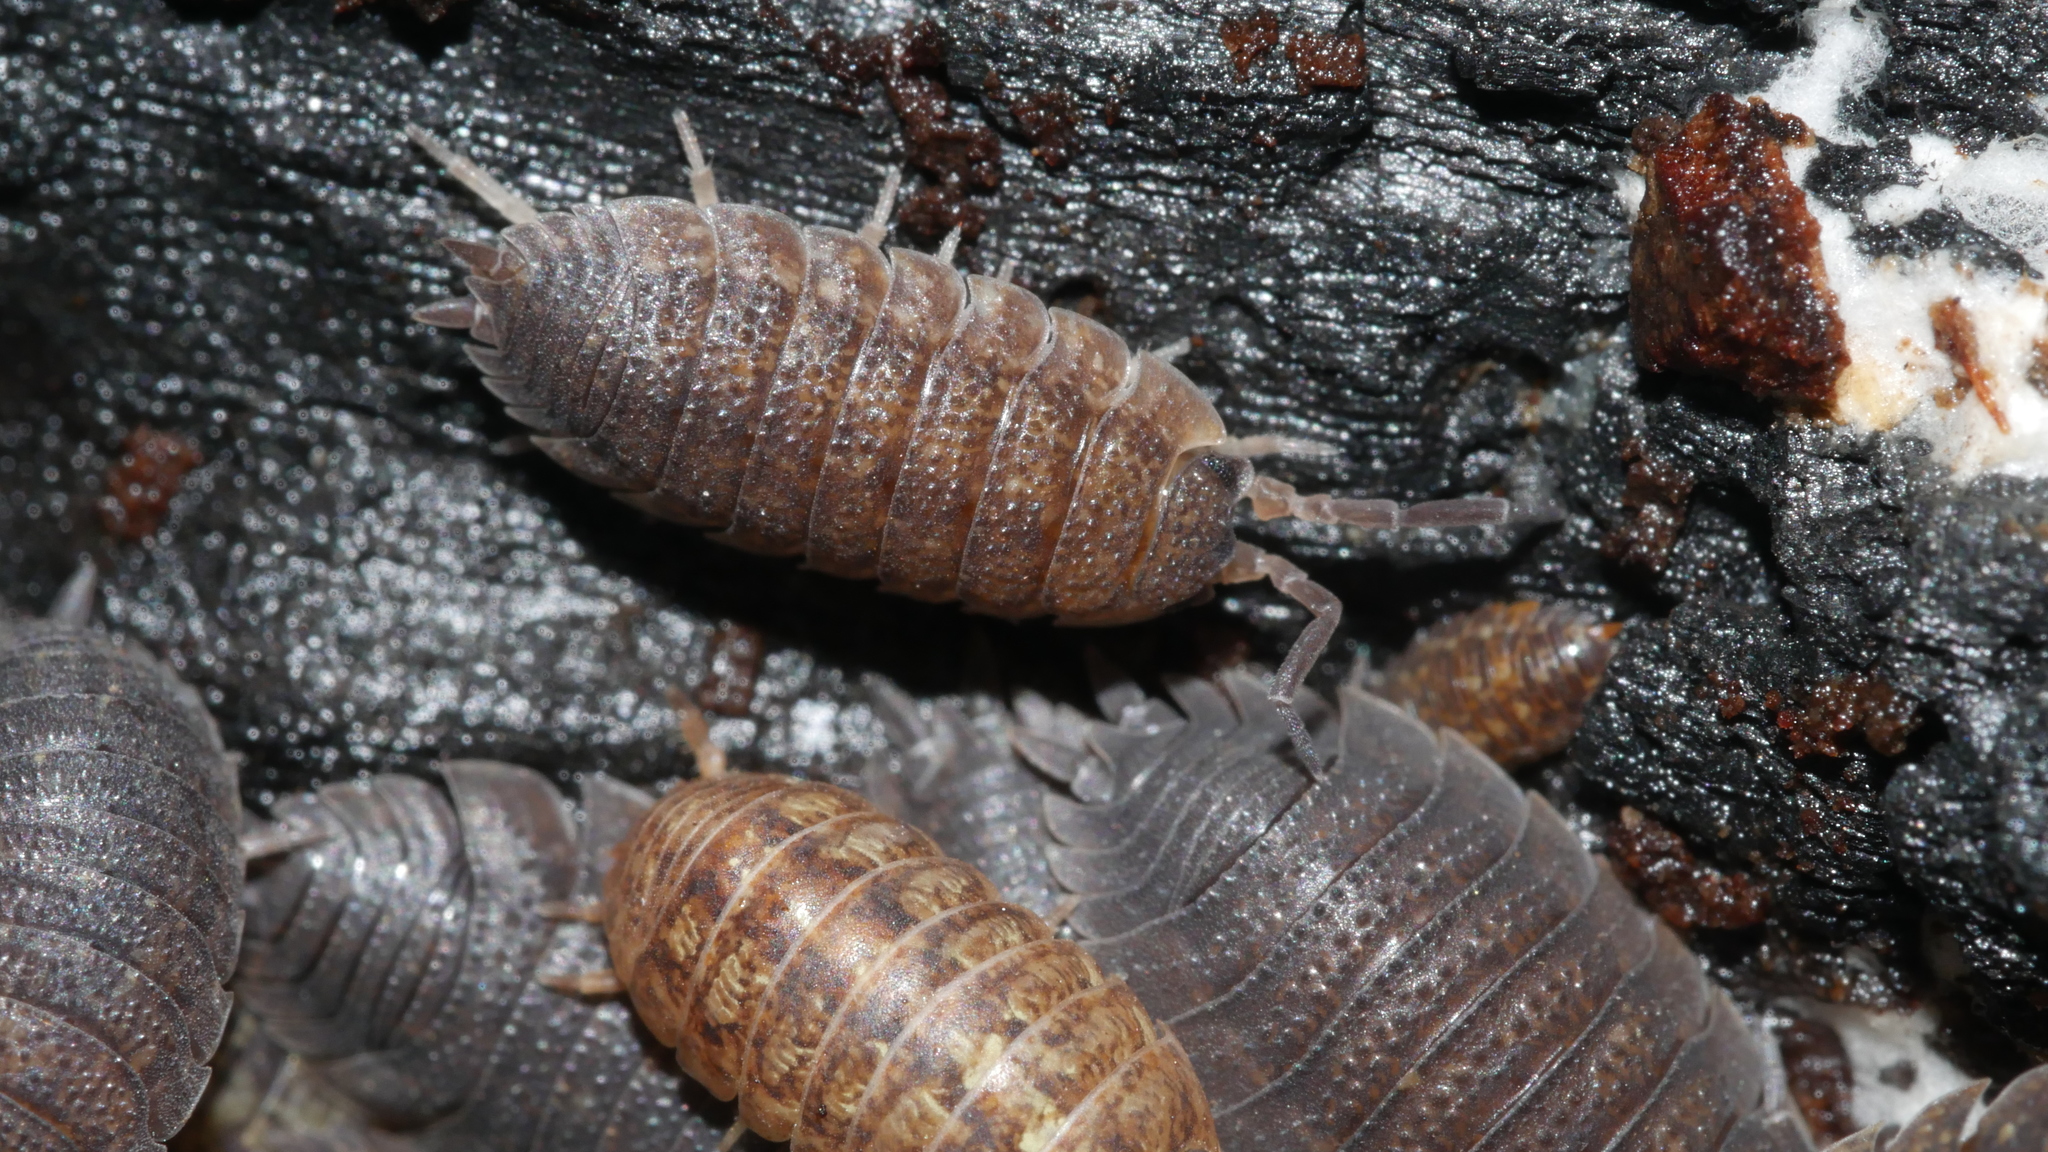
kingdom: Animalia
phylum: Arthropoda
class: Malacostraca
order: Isopoda
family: Porcellionidae
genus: Porcellio
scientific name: Porcellio scaber
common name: Common rough woodlouse
